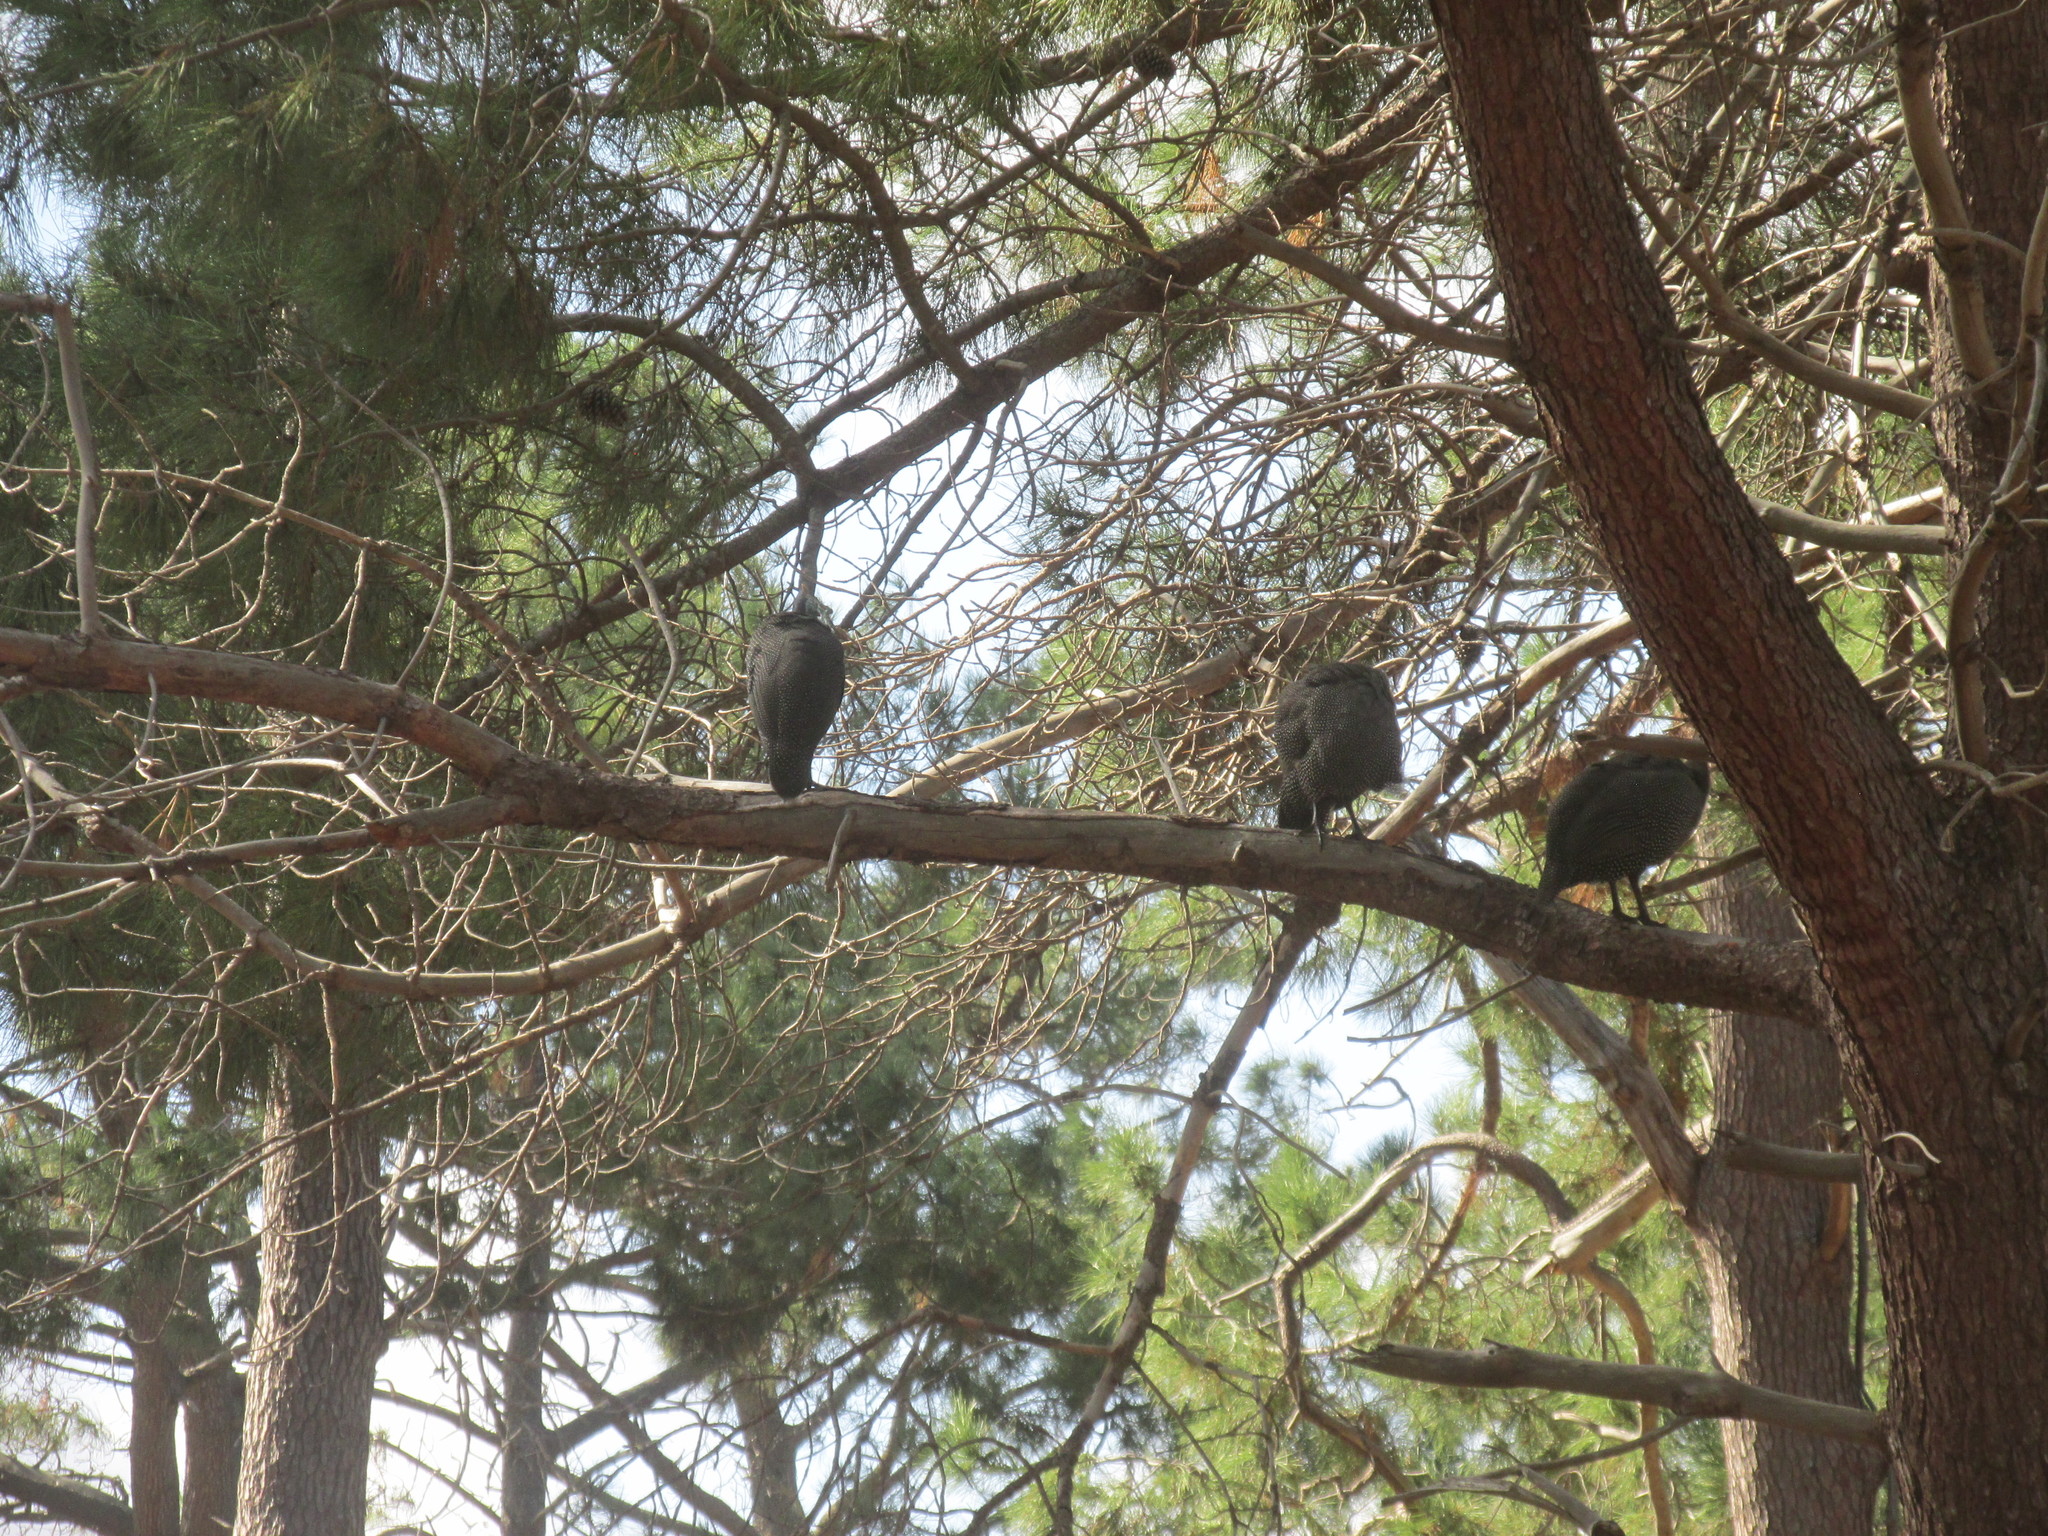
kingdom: Animalia
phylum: Chordata
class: Aves
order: Galliformes
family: Numididae
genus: Numida
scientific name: Numida meleagris
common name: Helmeted guineafowl
